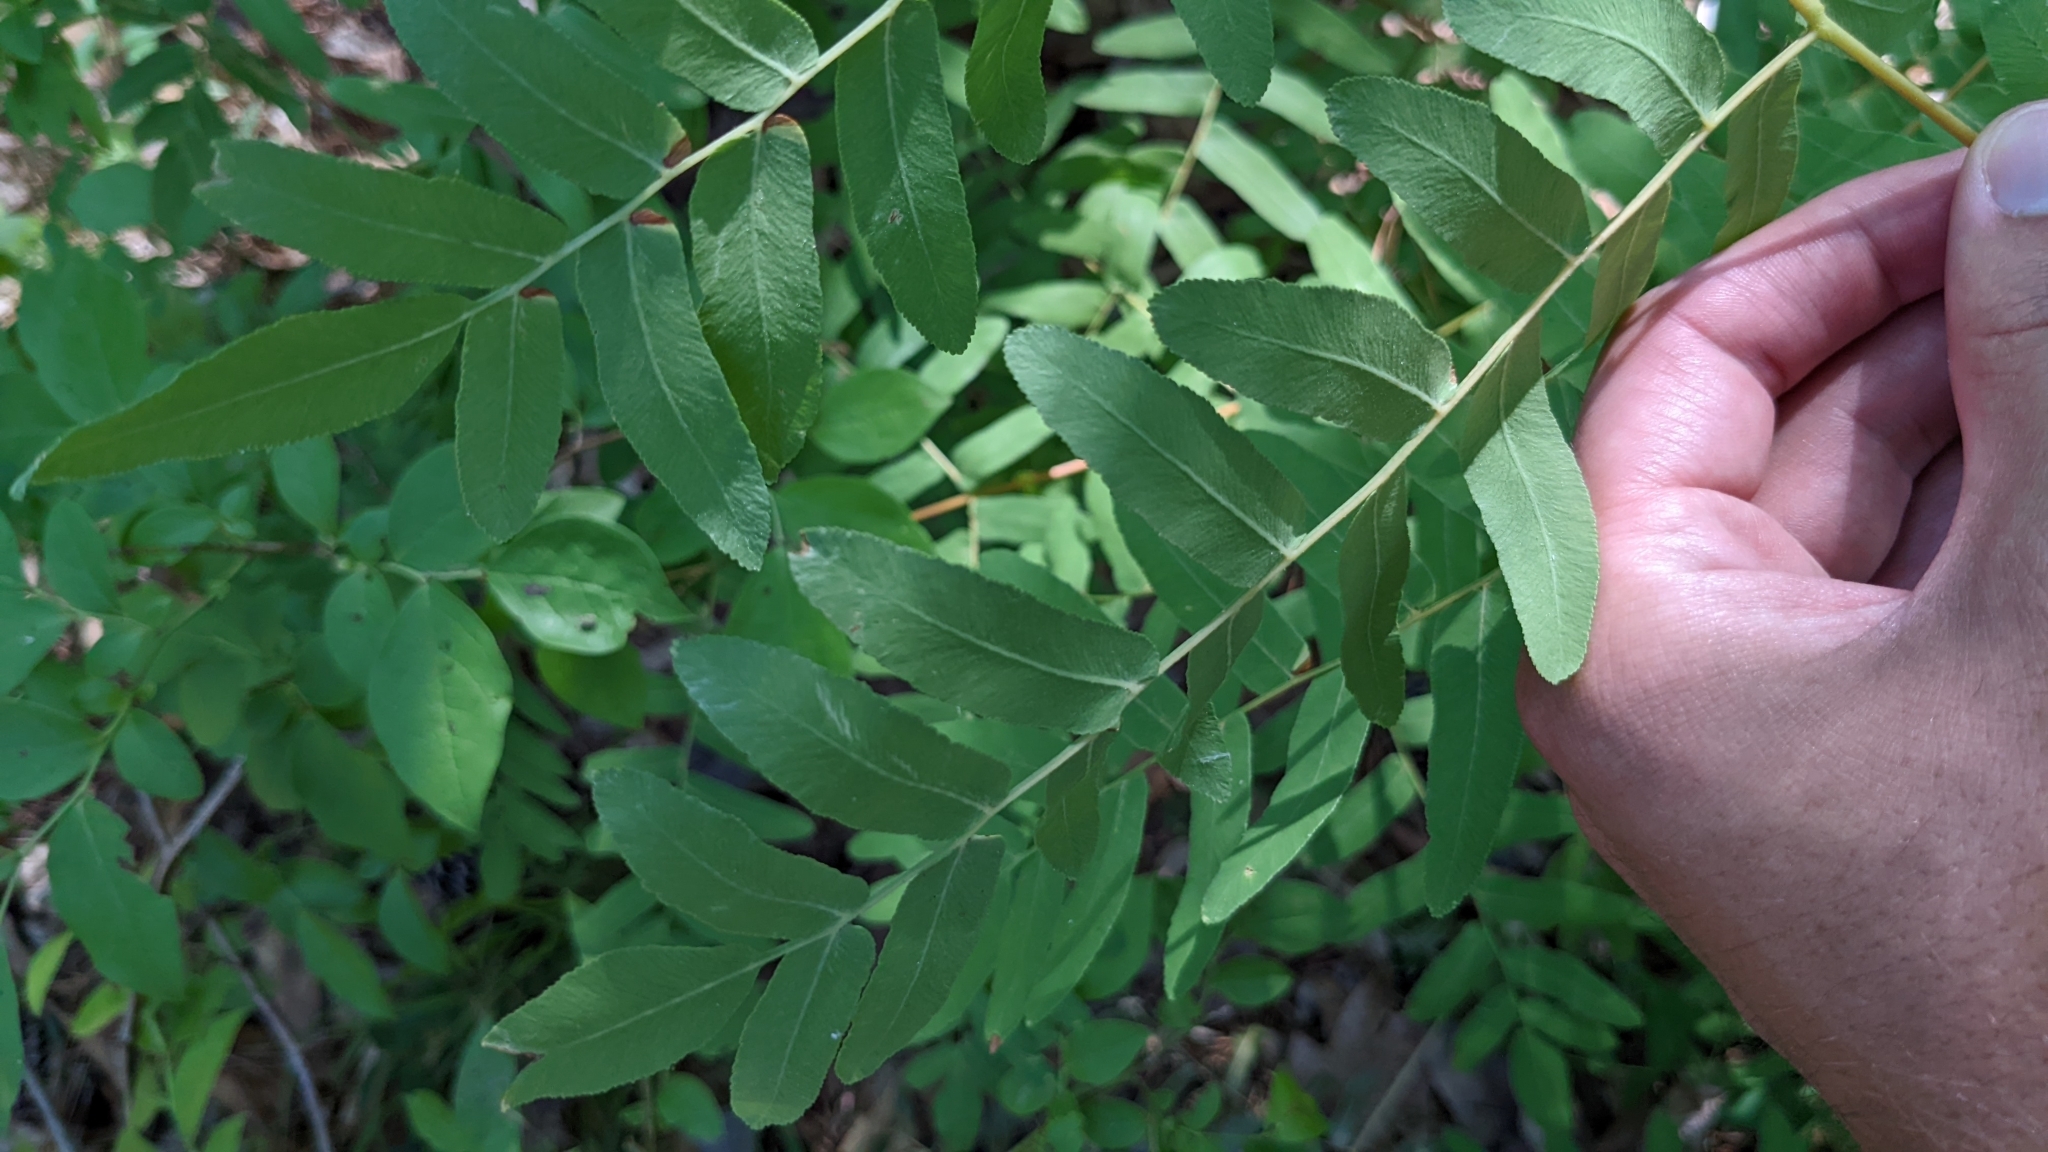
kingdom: Plantae
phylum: Tracheophyta
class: Polypodiopsida
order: Osmundales
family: Osmundaceae
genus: Osmunda
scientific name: Osmunda spectabilis
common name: American royal fern
